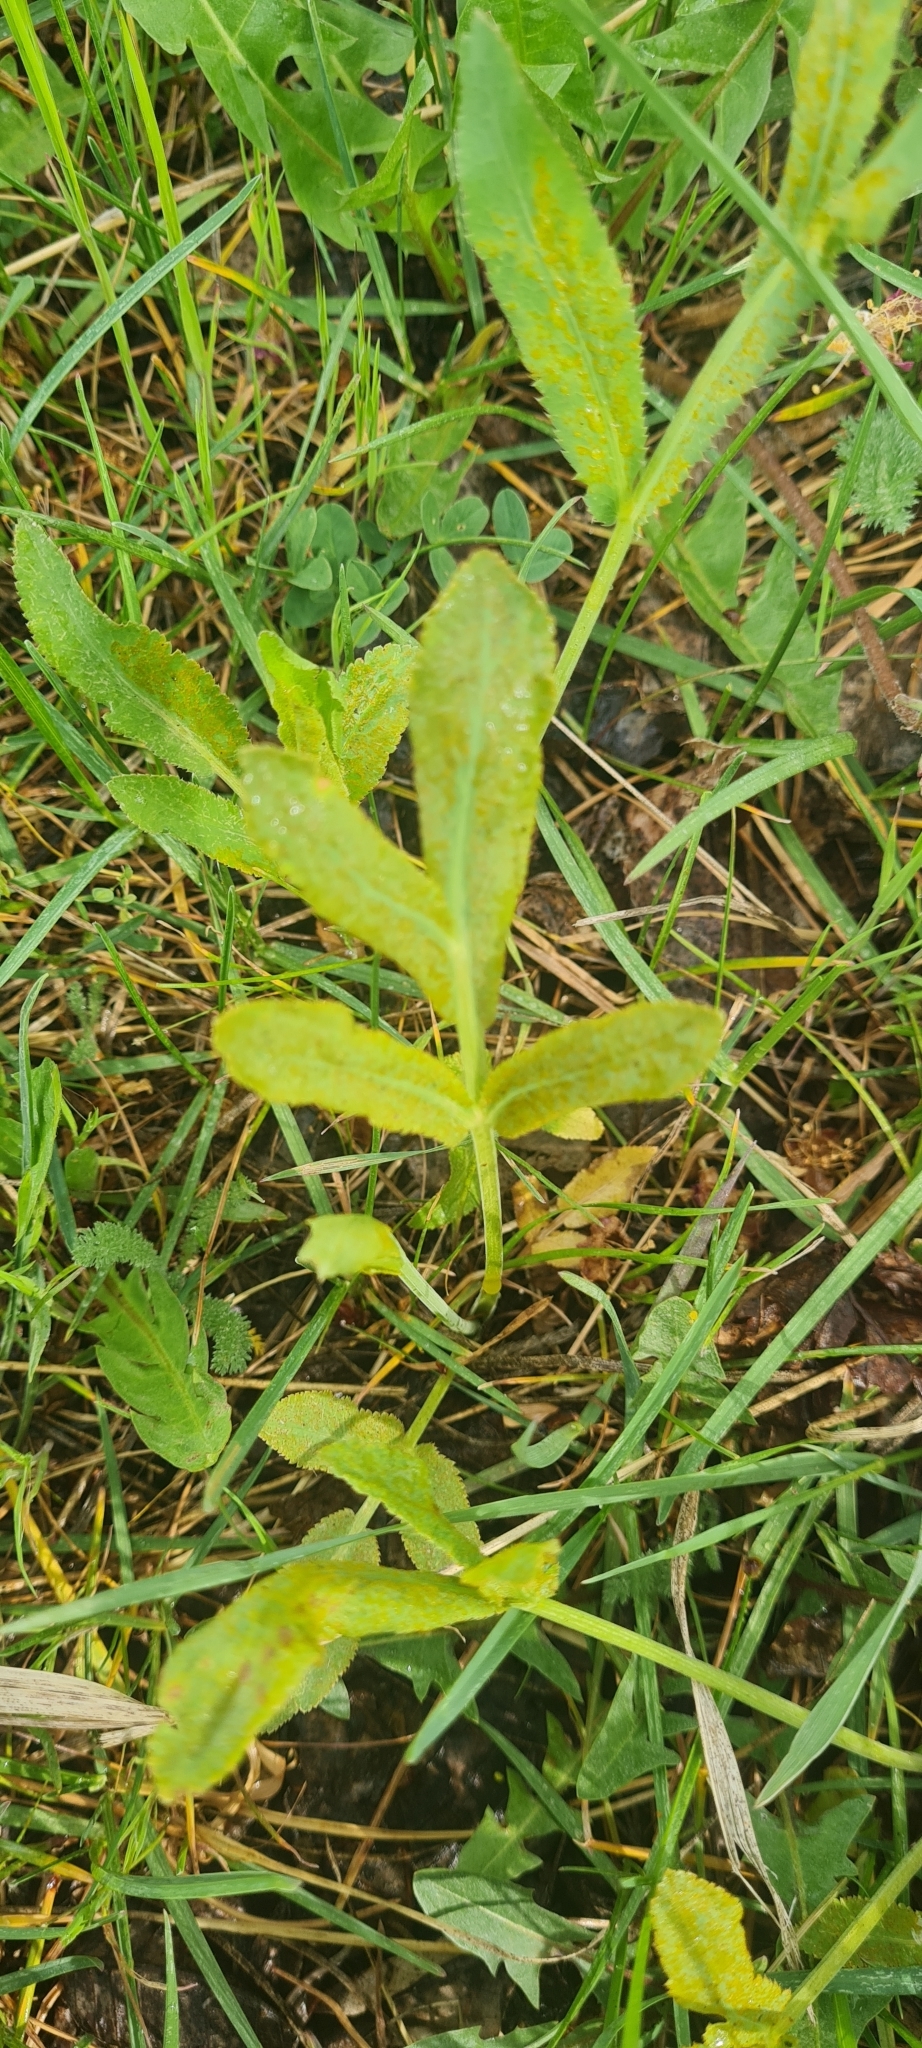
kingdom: Plantae
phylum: Tracheophyta
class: Magnoliopsida
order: Apiales
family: Apiaceae
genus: Falcaria
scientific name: Falcaria vulgaris
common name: Longleaf
